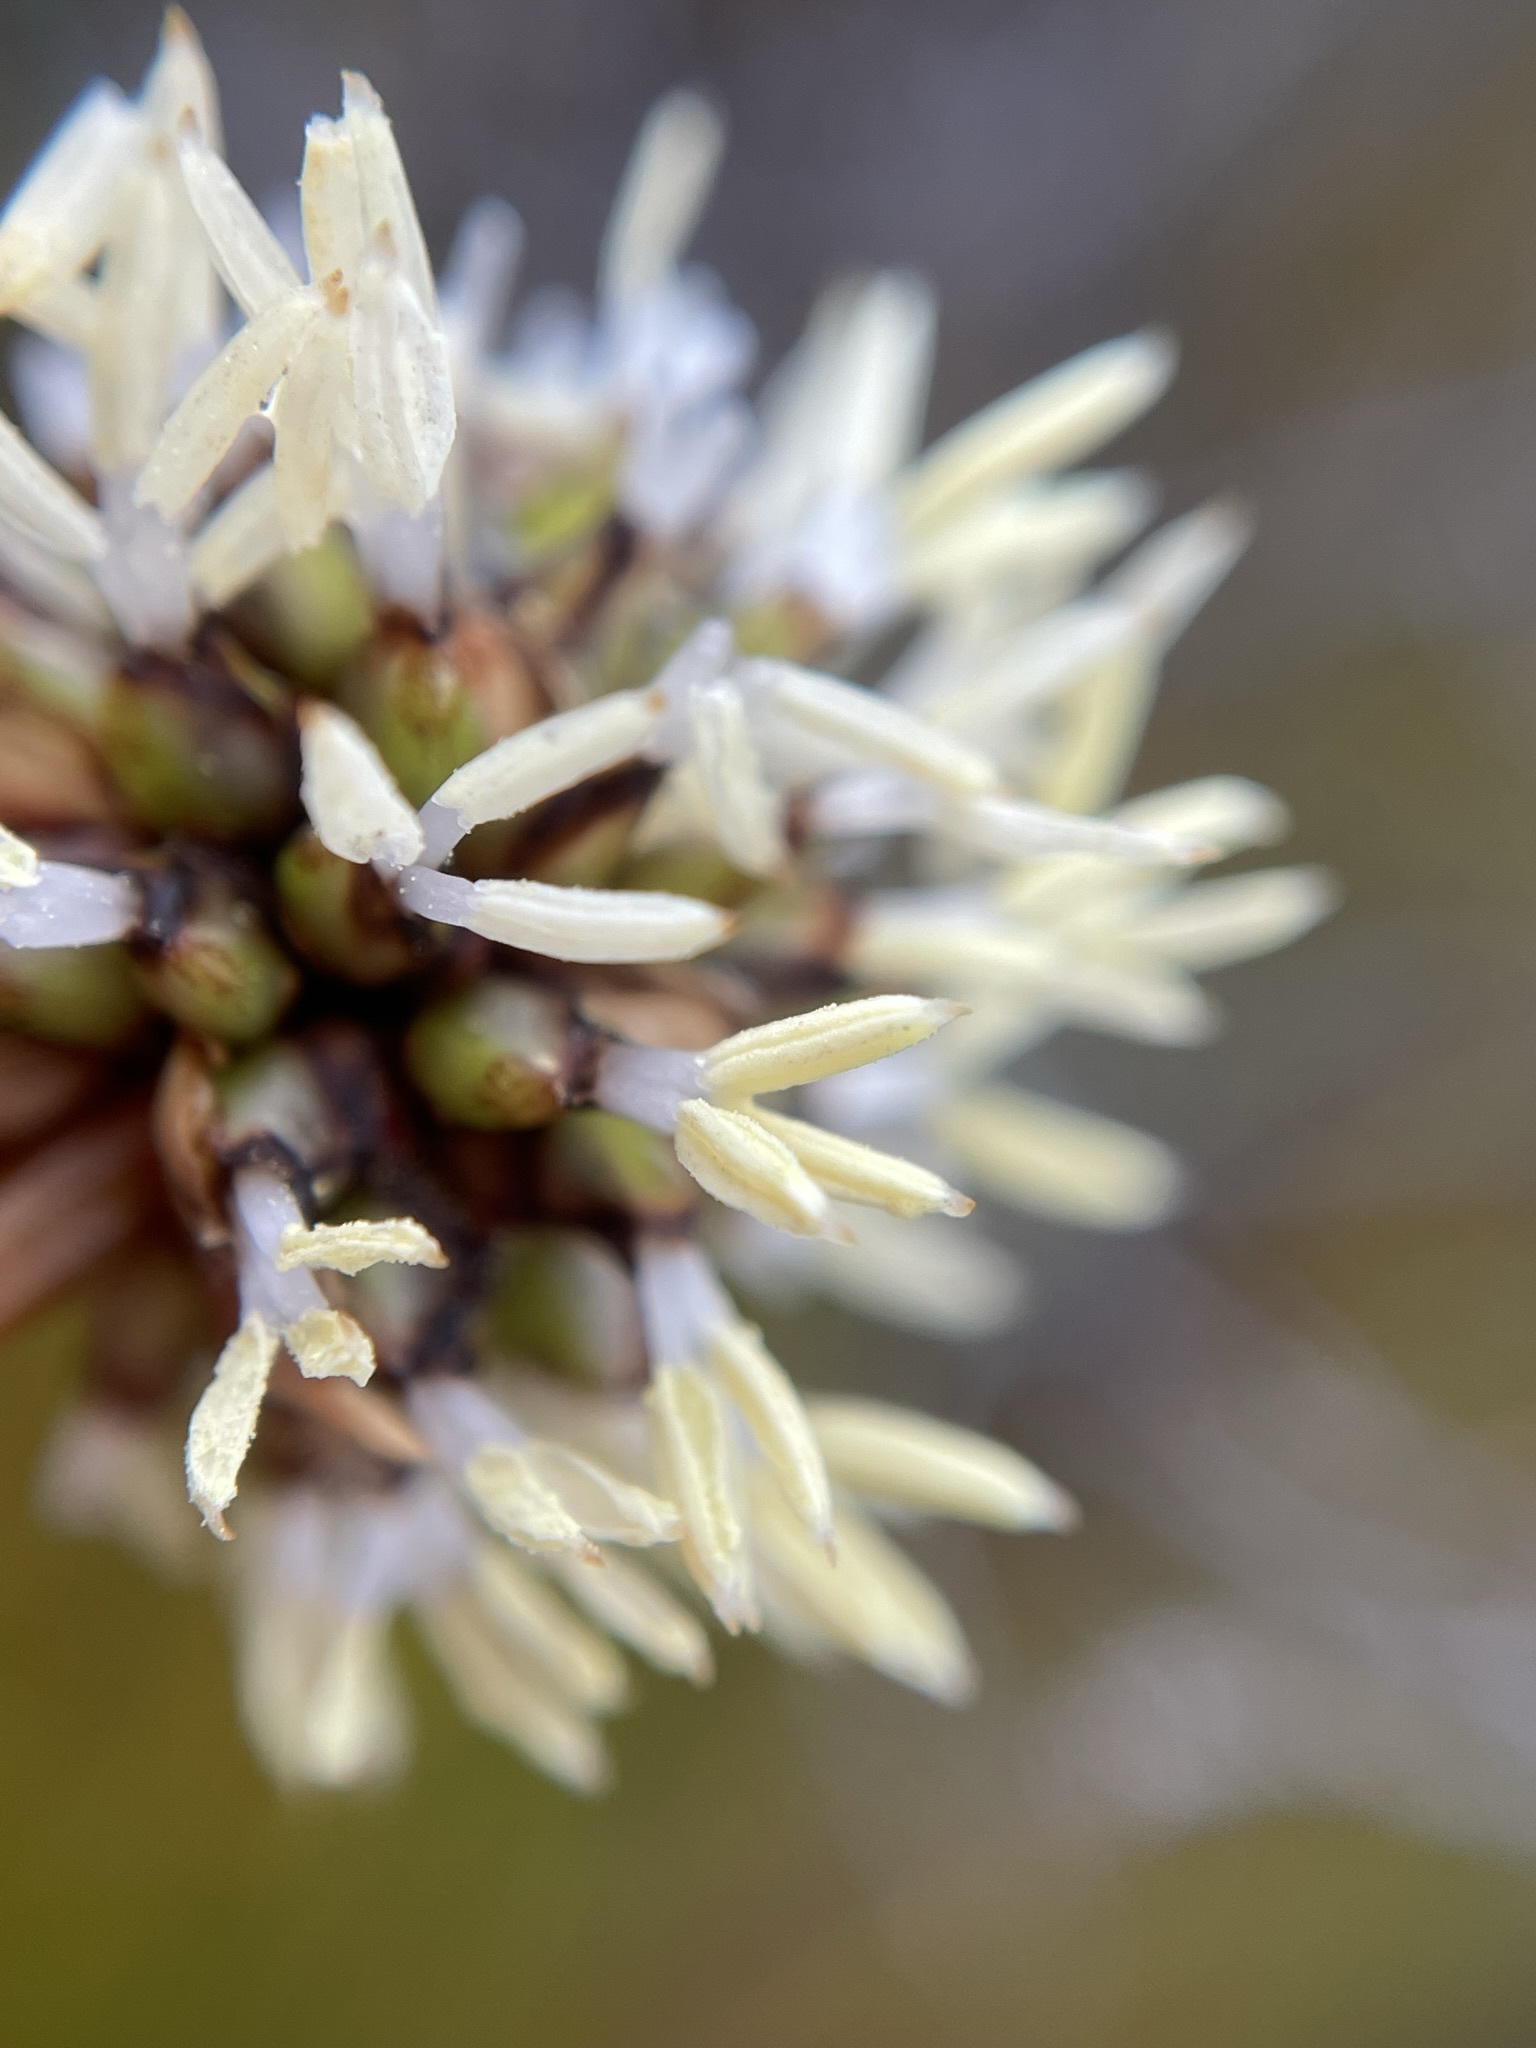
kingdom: Plantae
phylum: Tracheophyta
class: Liliopsida
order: Poales
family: Cyperaceae
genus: Gymnoschoenus
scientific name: Gymnoschoenus sphaerocephalus
